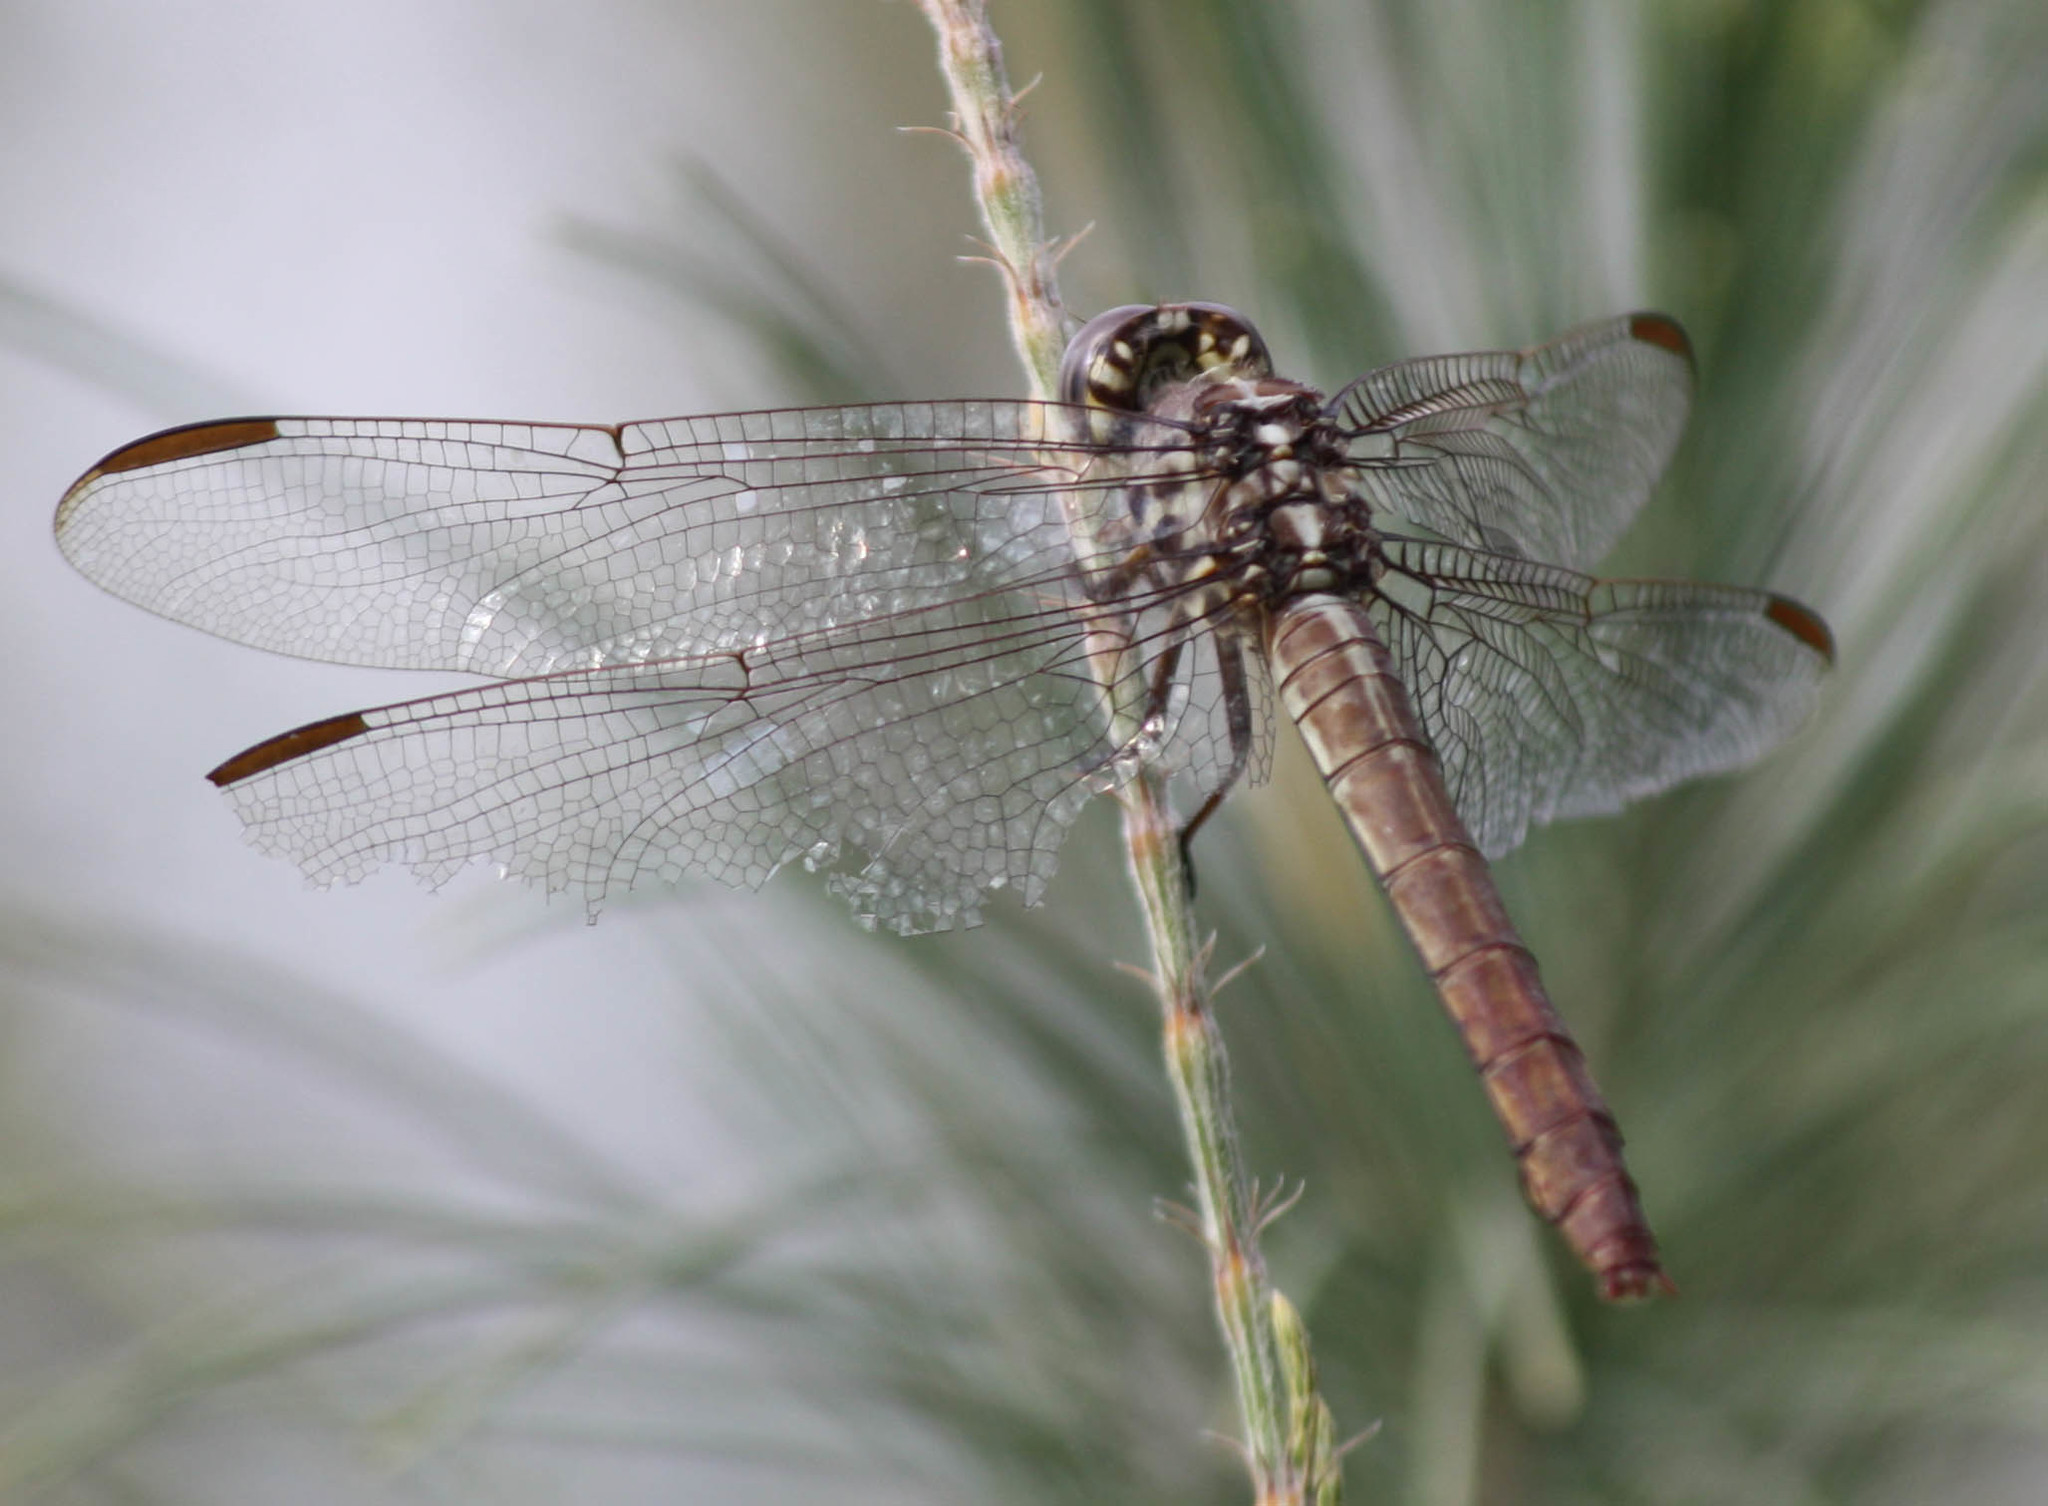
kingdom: Animalia
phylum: Arthropoda
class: Insecta
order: Odonata
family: Libellulidae
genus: Orthemis
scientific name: Orthemis ferruginea
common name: Roseate skimmer
